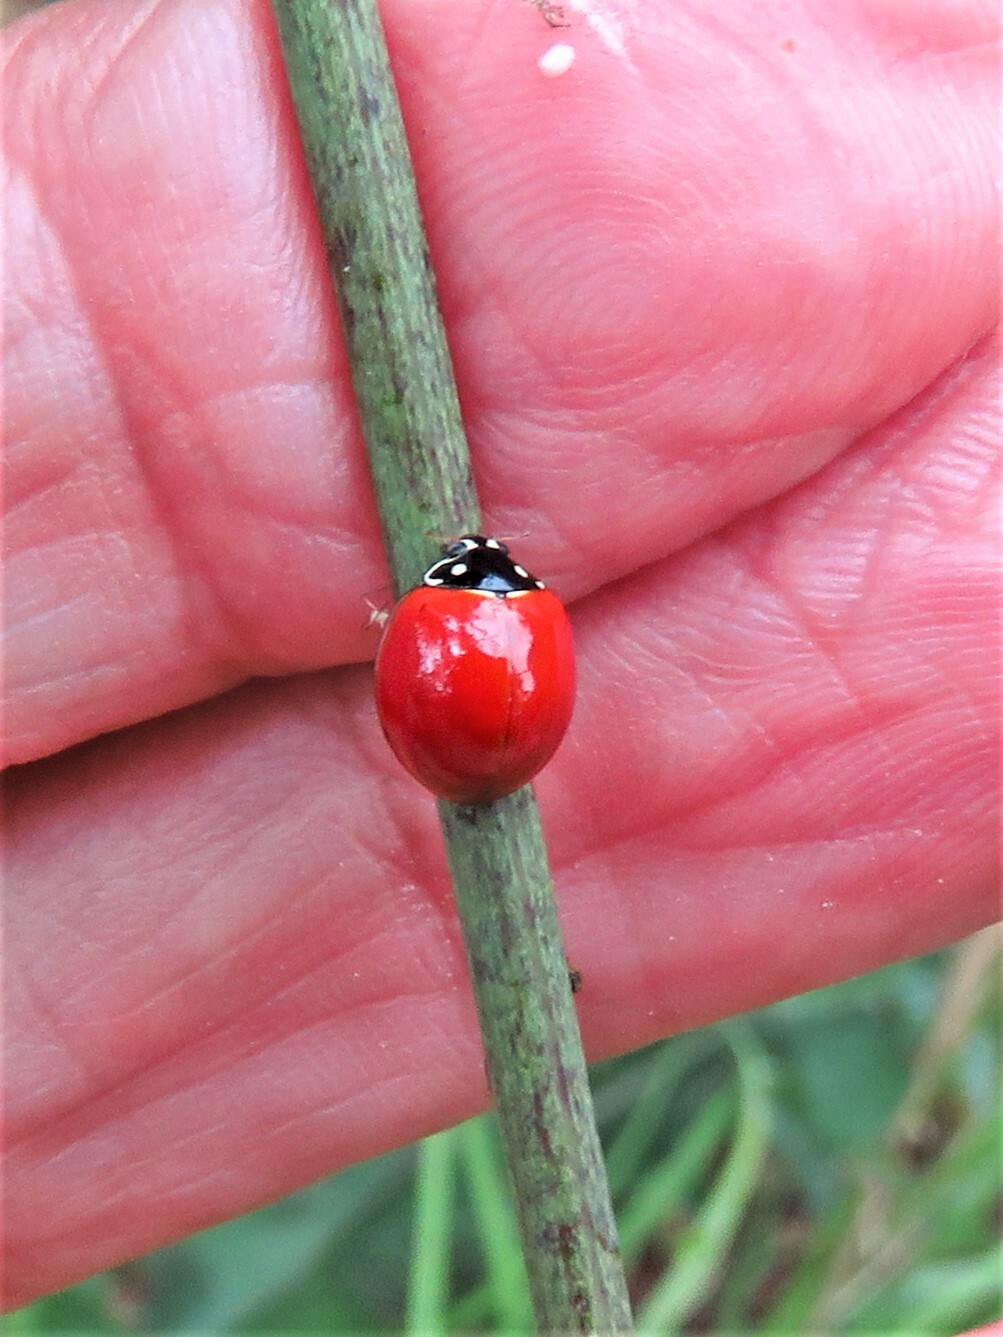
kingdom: Animalia
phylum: Arthropoda
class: Insecta
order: Coleoptera
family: Coccinellidae
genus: Cycloneda
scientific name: Cycloneda sanguinea
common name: Ladybird beetle
